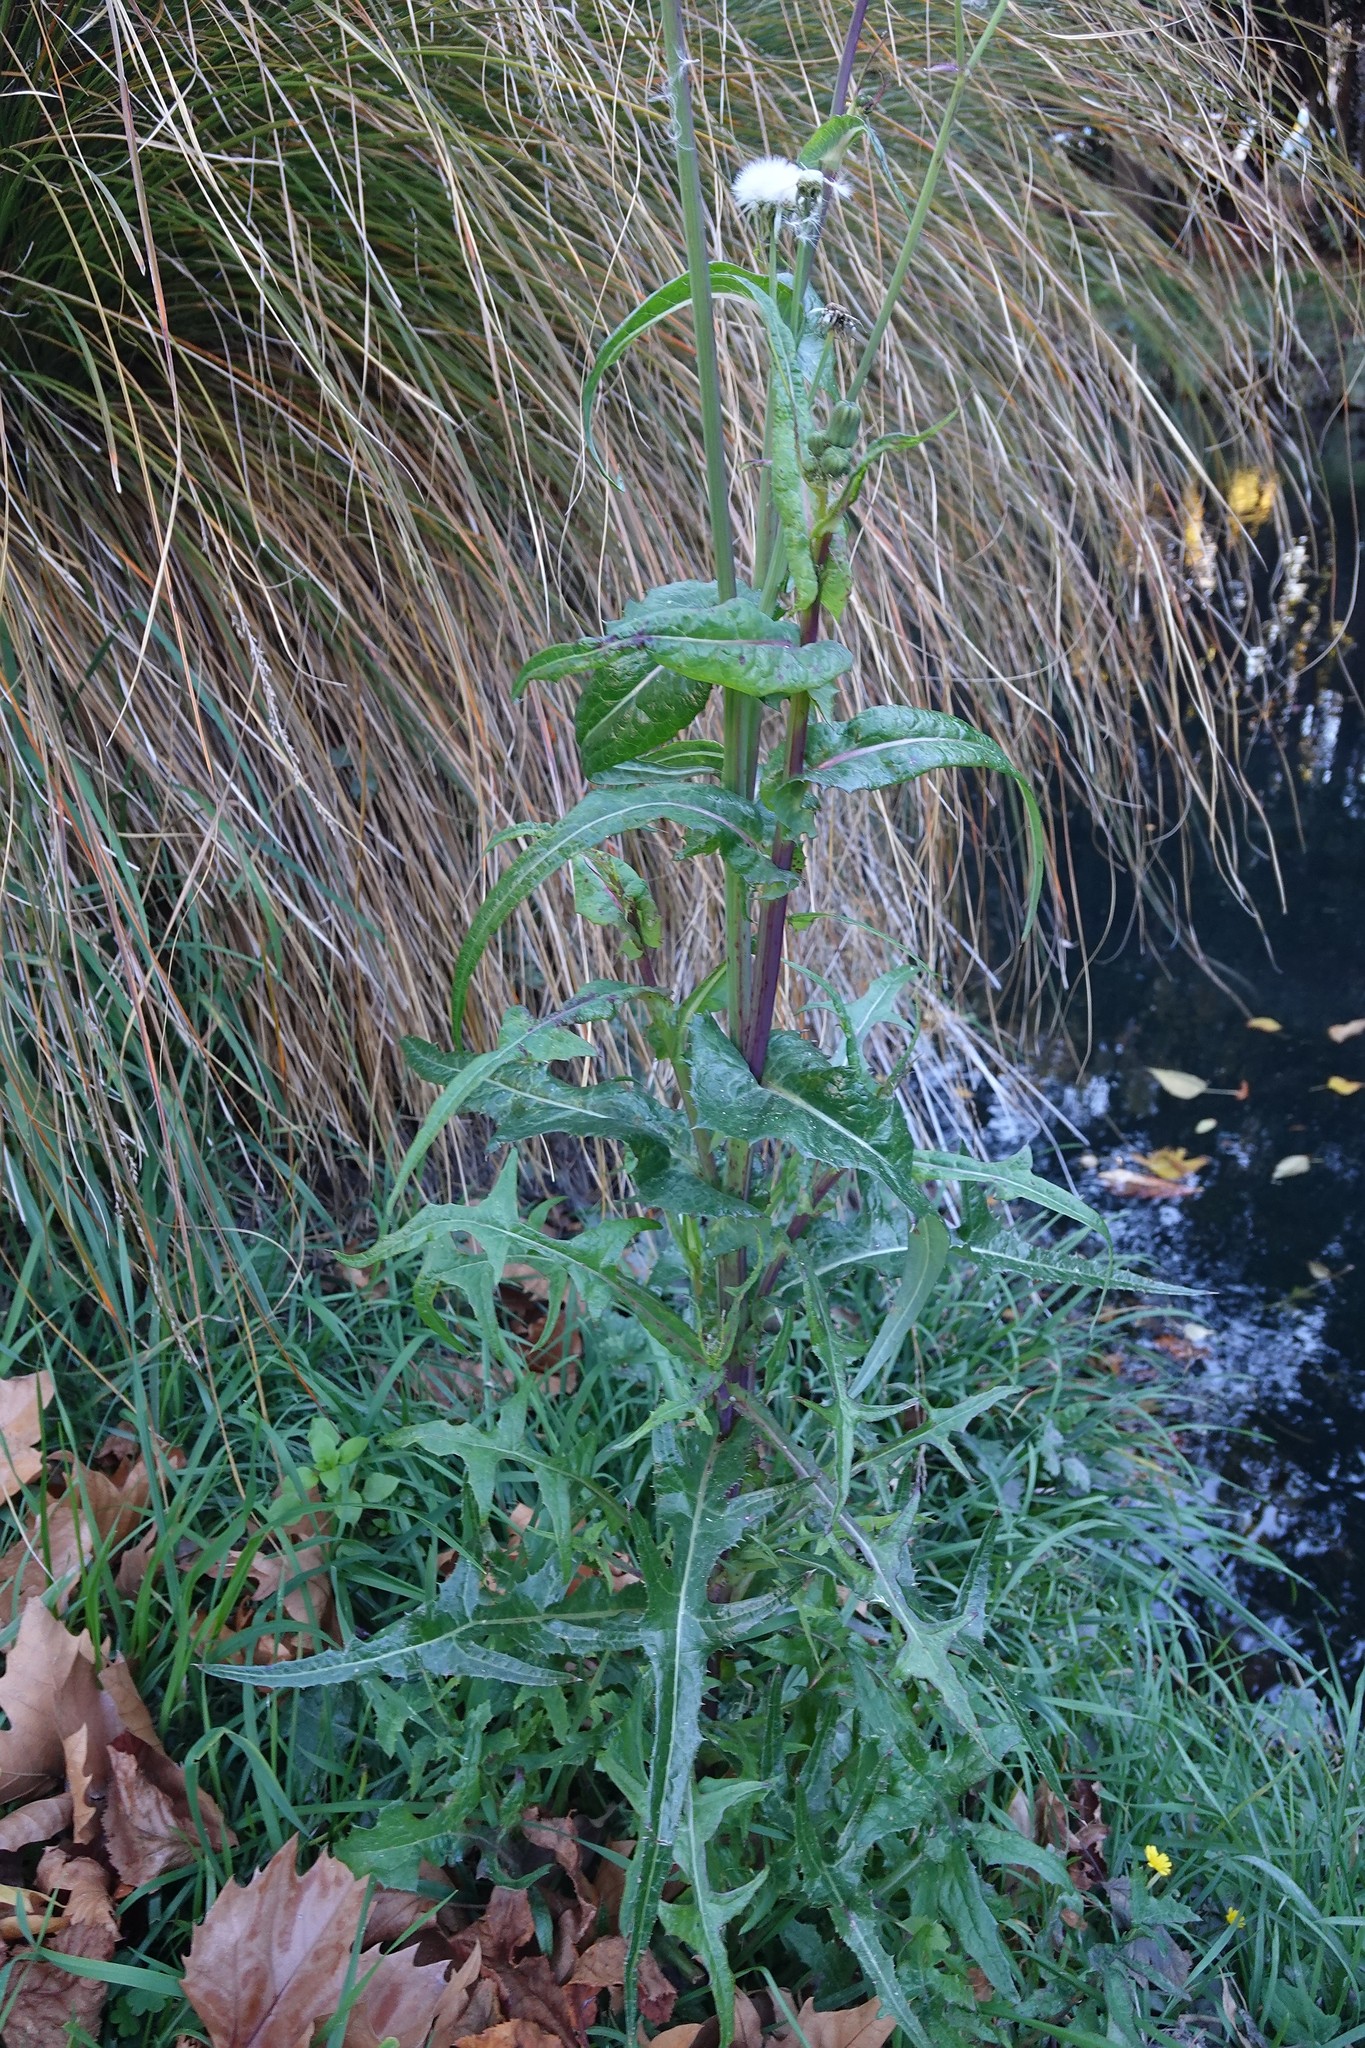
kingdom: Plantae
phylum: Tracheophyta
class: Magnoliopsida
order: Asterales
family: Asteraceae
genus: Sonchus
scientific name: Sonchus oleraceus
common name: Common sowthistle
